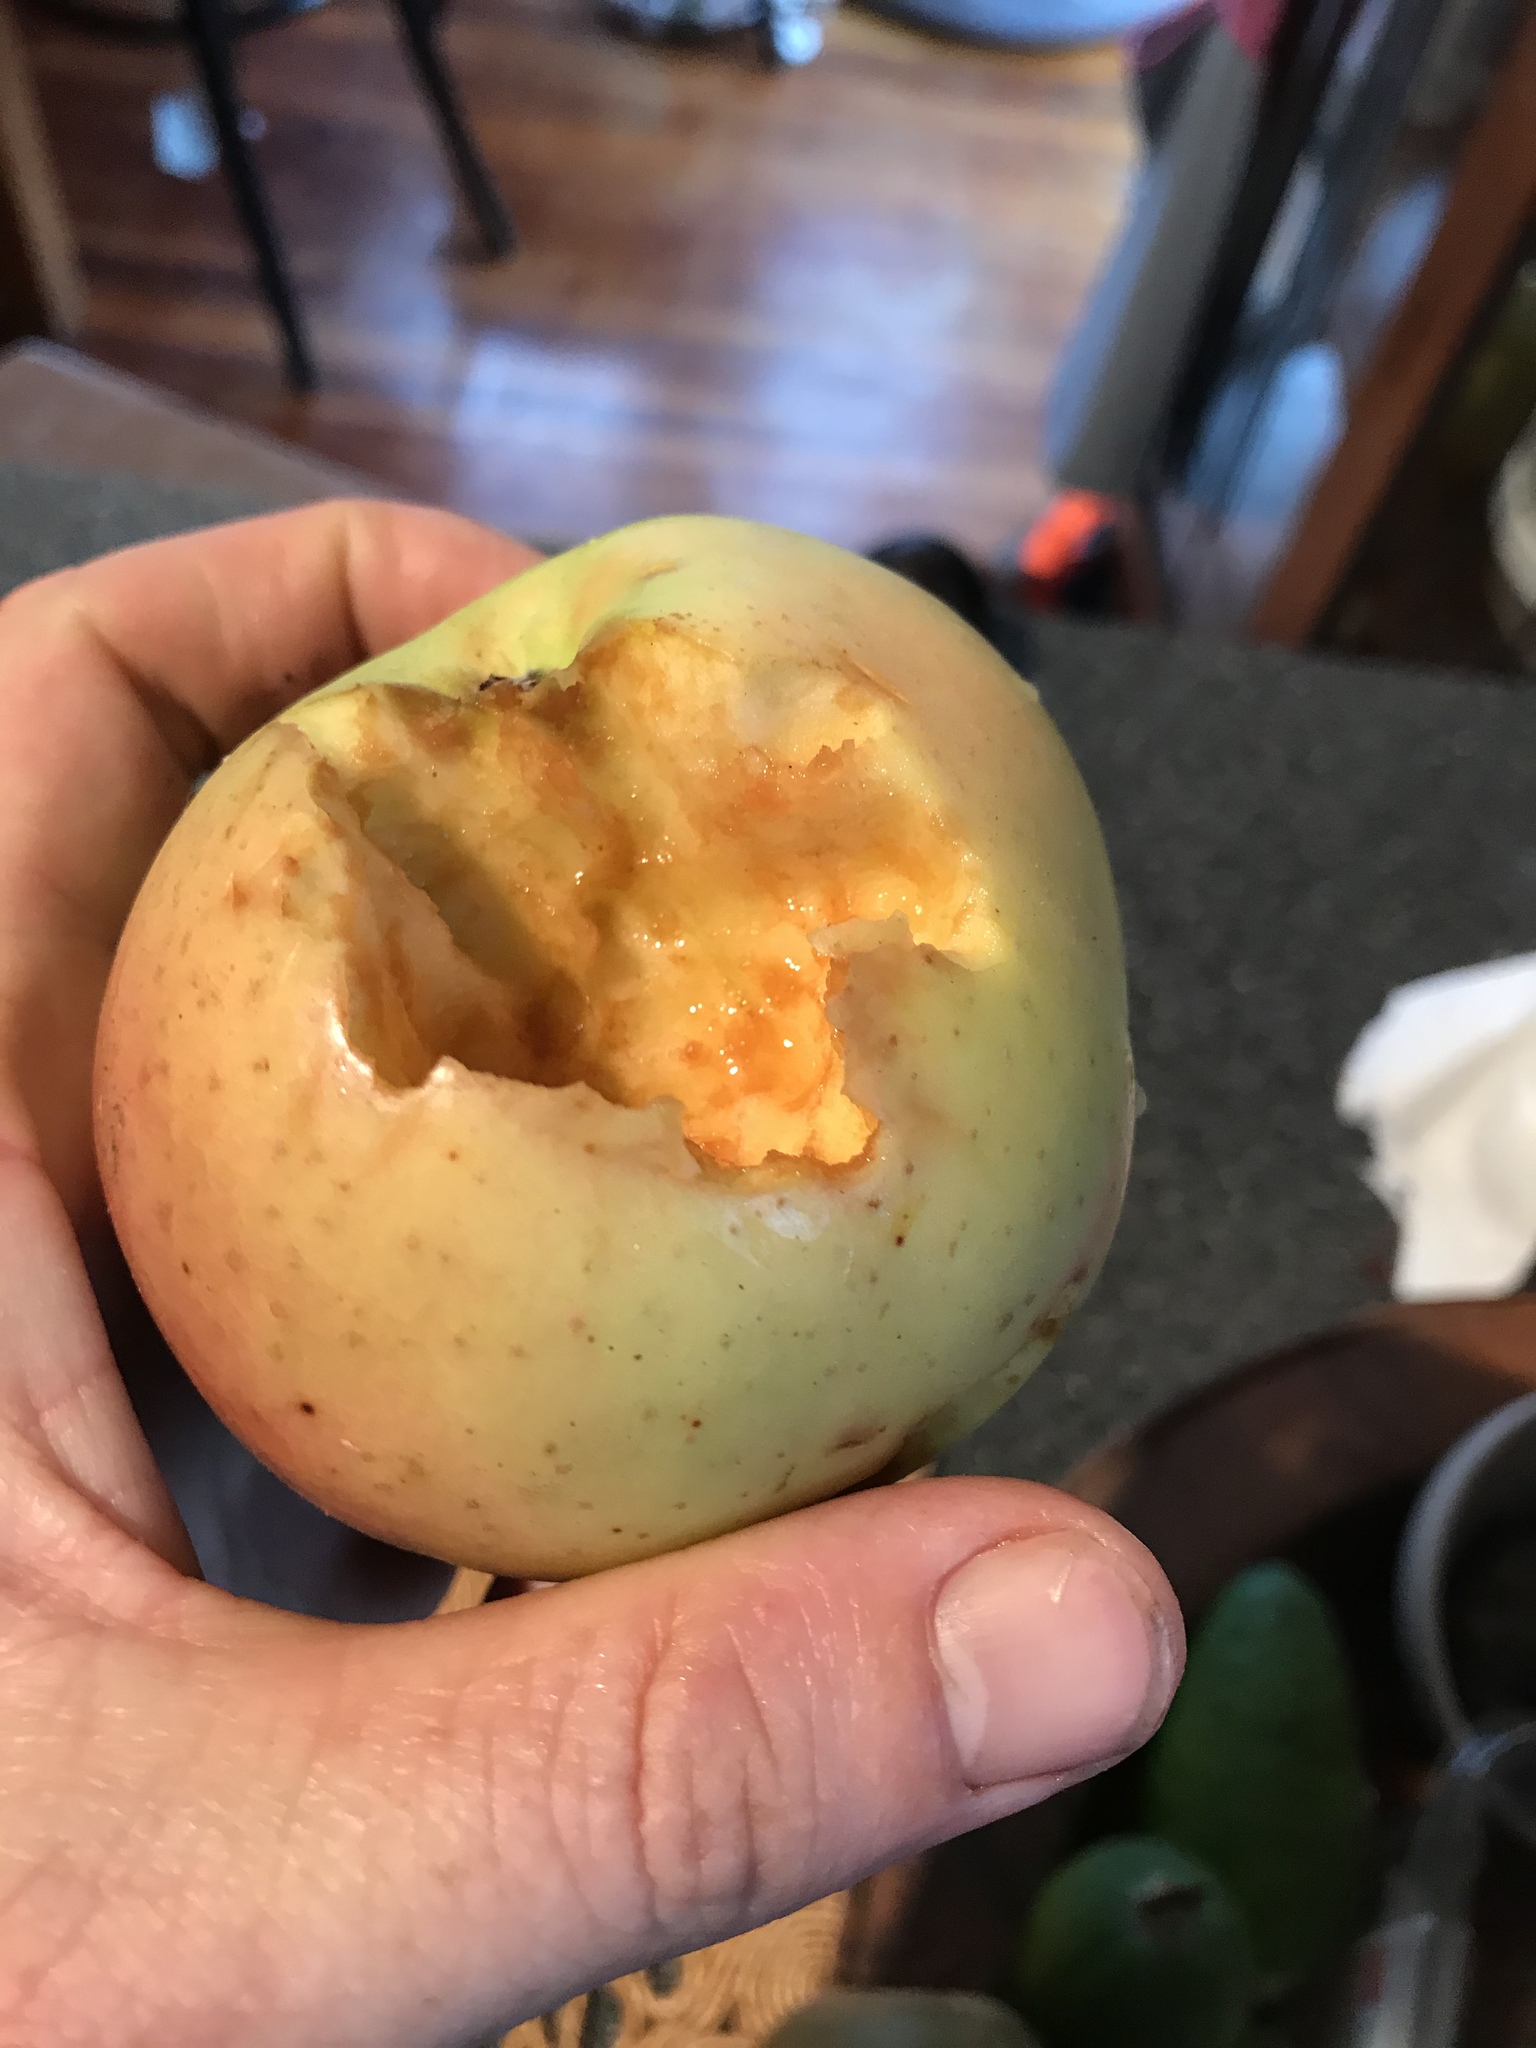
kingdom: Animalia
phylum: Chordata
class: Mammalia
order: Rodentia
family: Muridae
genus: Rattus
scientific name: Rattus
